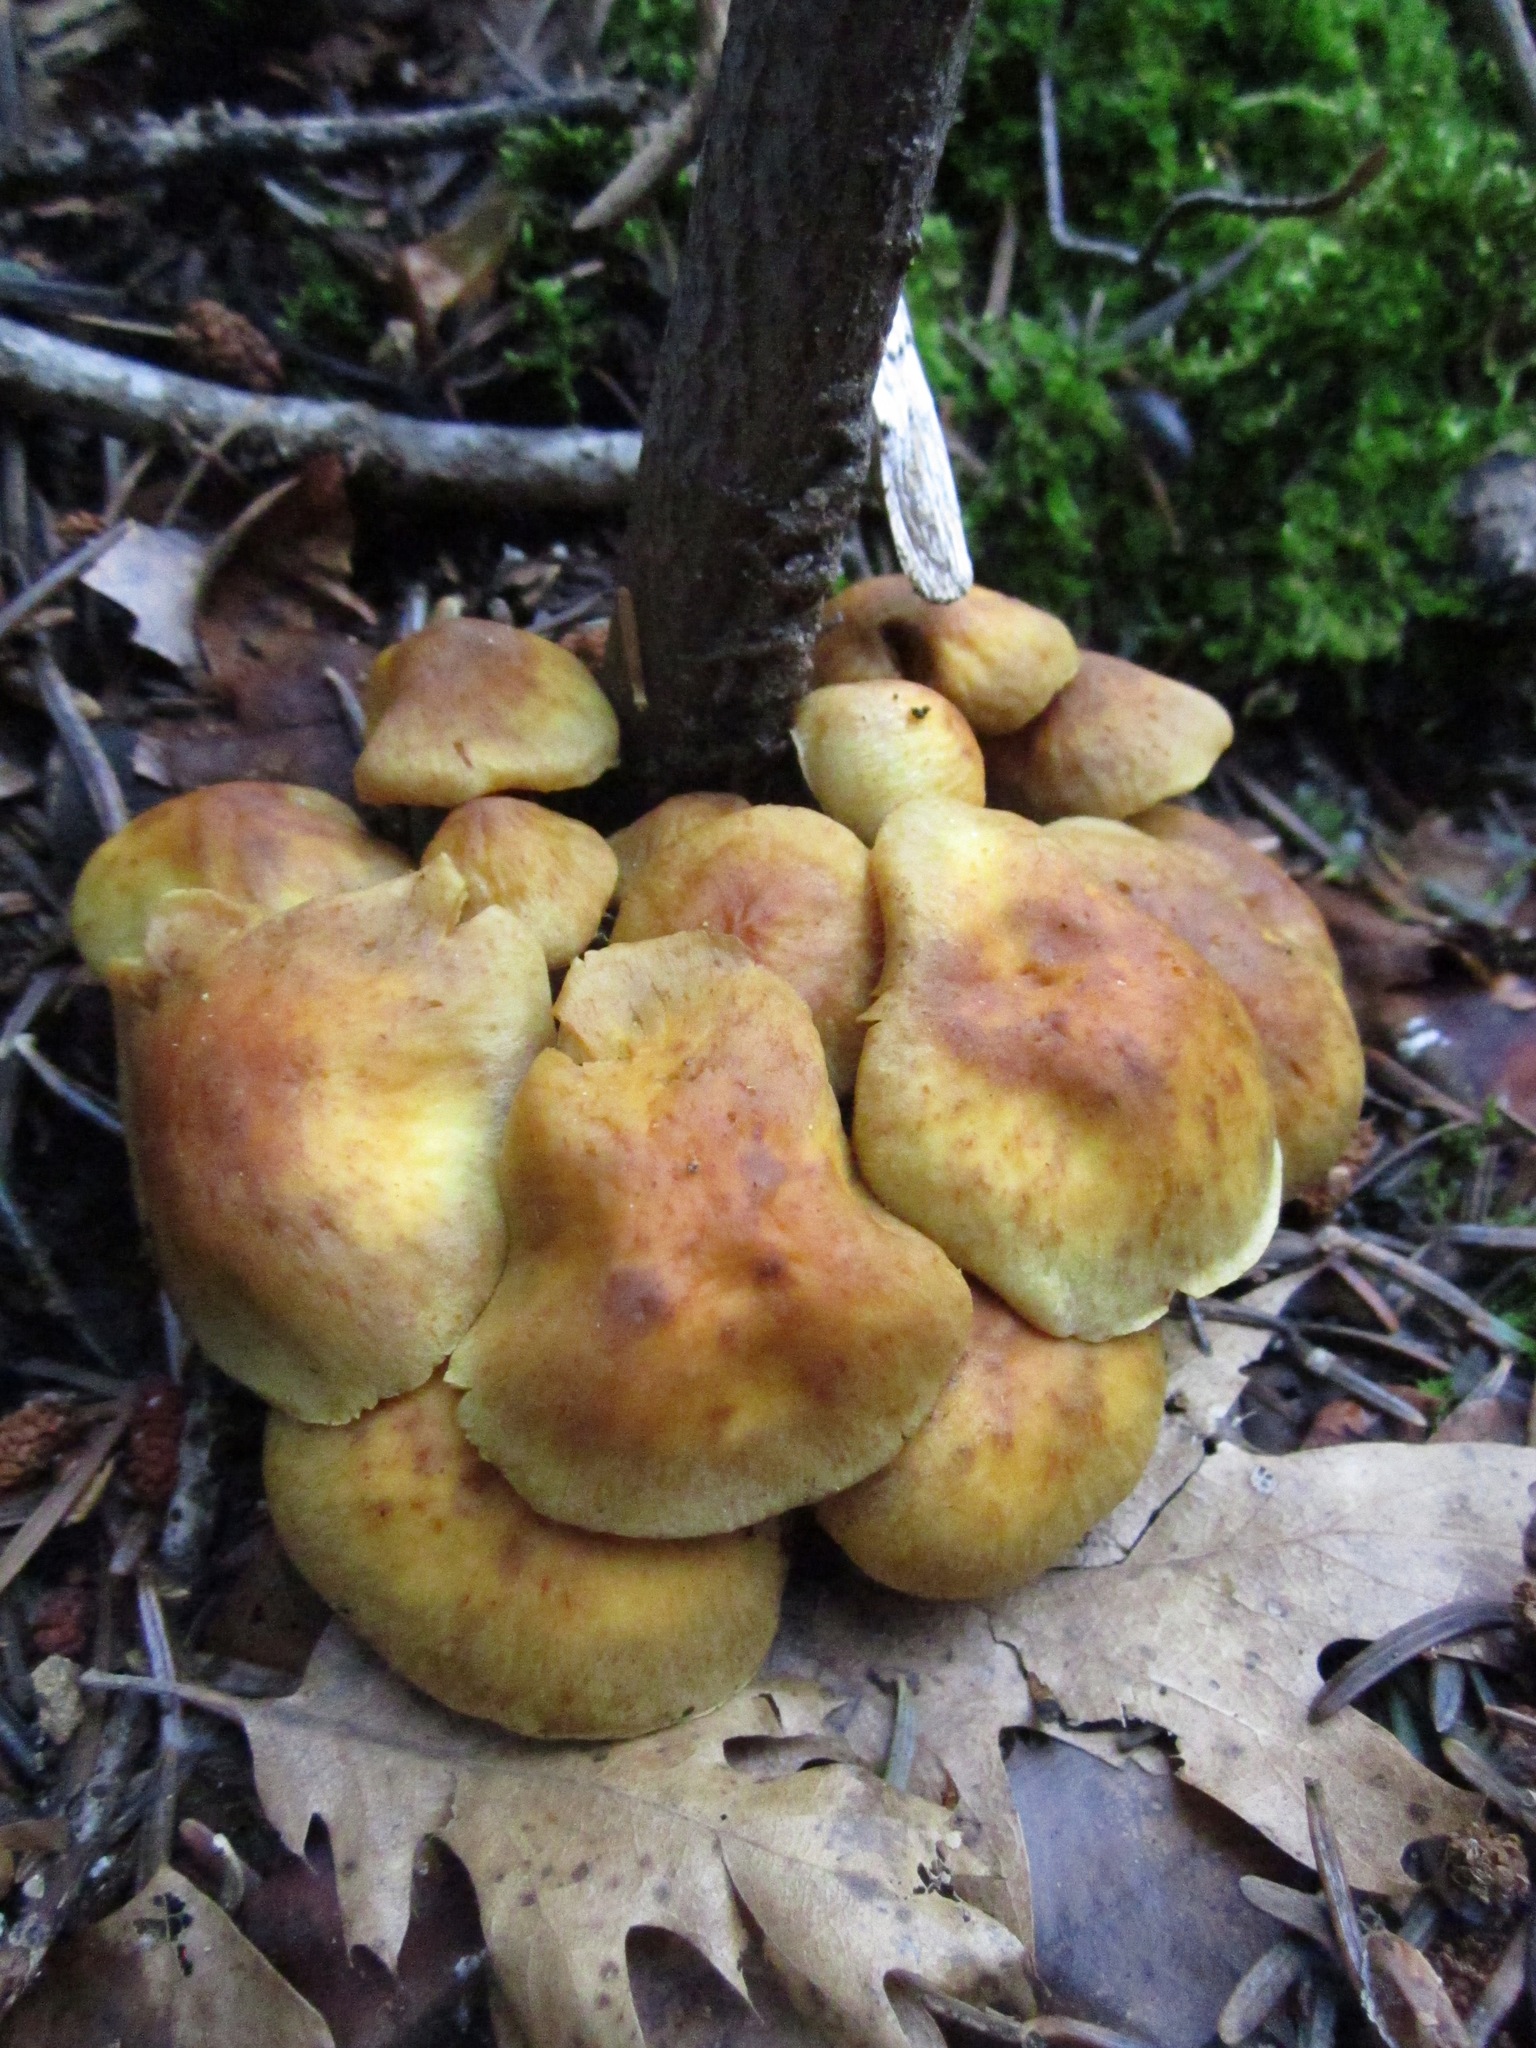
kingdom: Fungi
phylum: Basidiomycota
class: Agaricomycetes
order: Agaricales
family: Strophariaceae
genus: Hypholoma
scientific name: Hypholoma fasciculare
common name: Sulphur tuft
